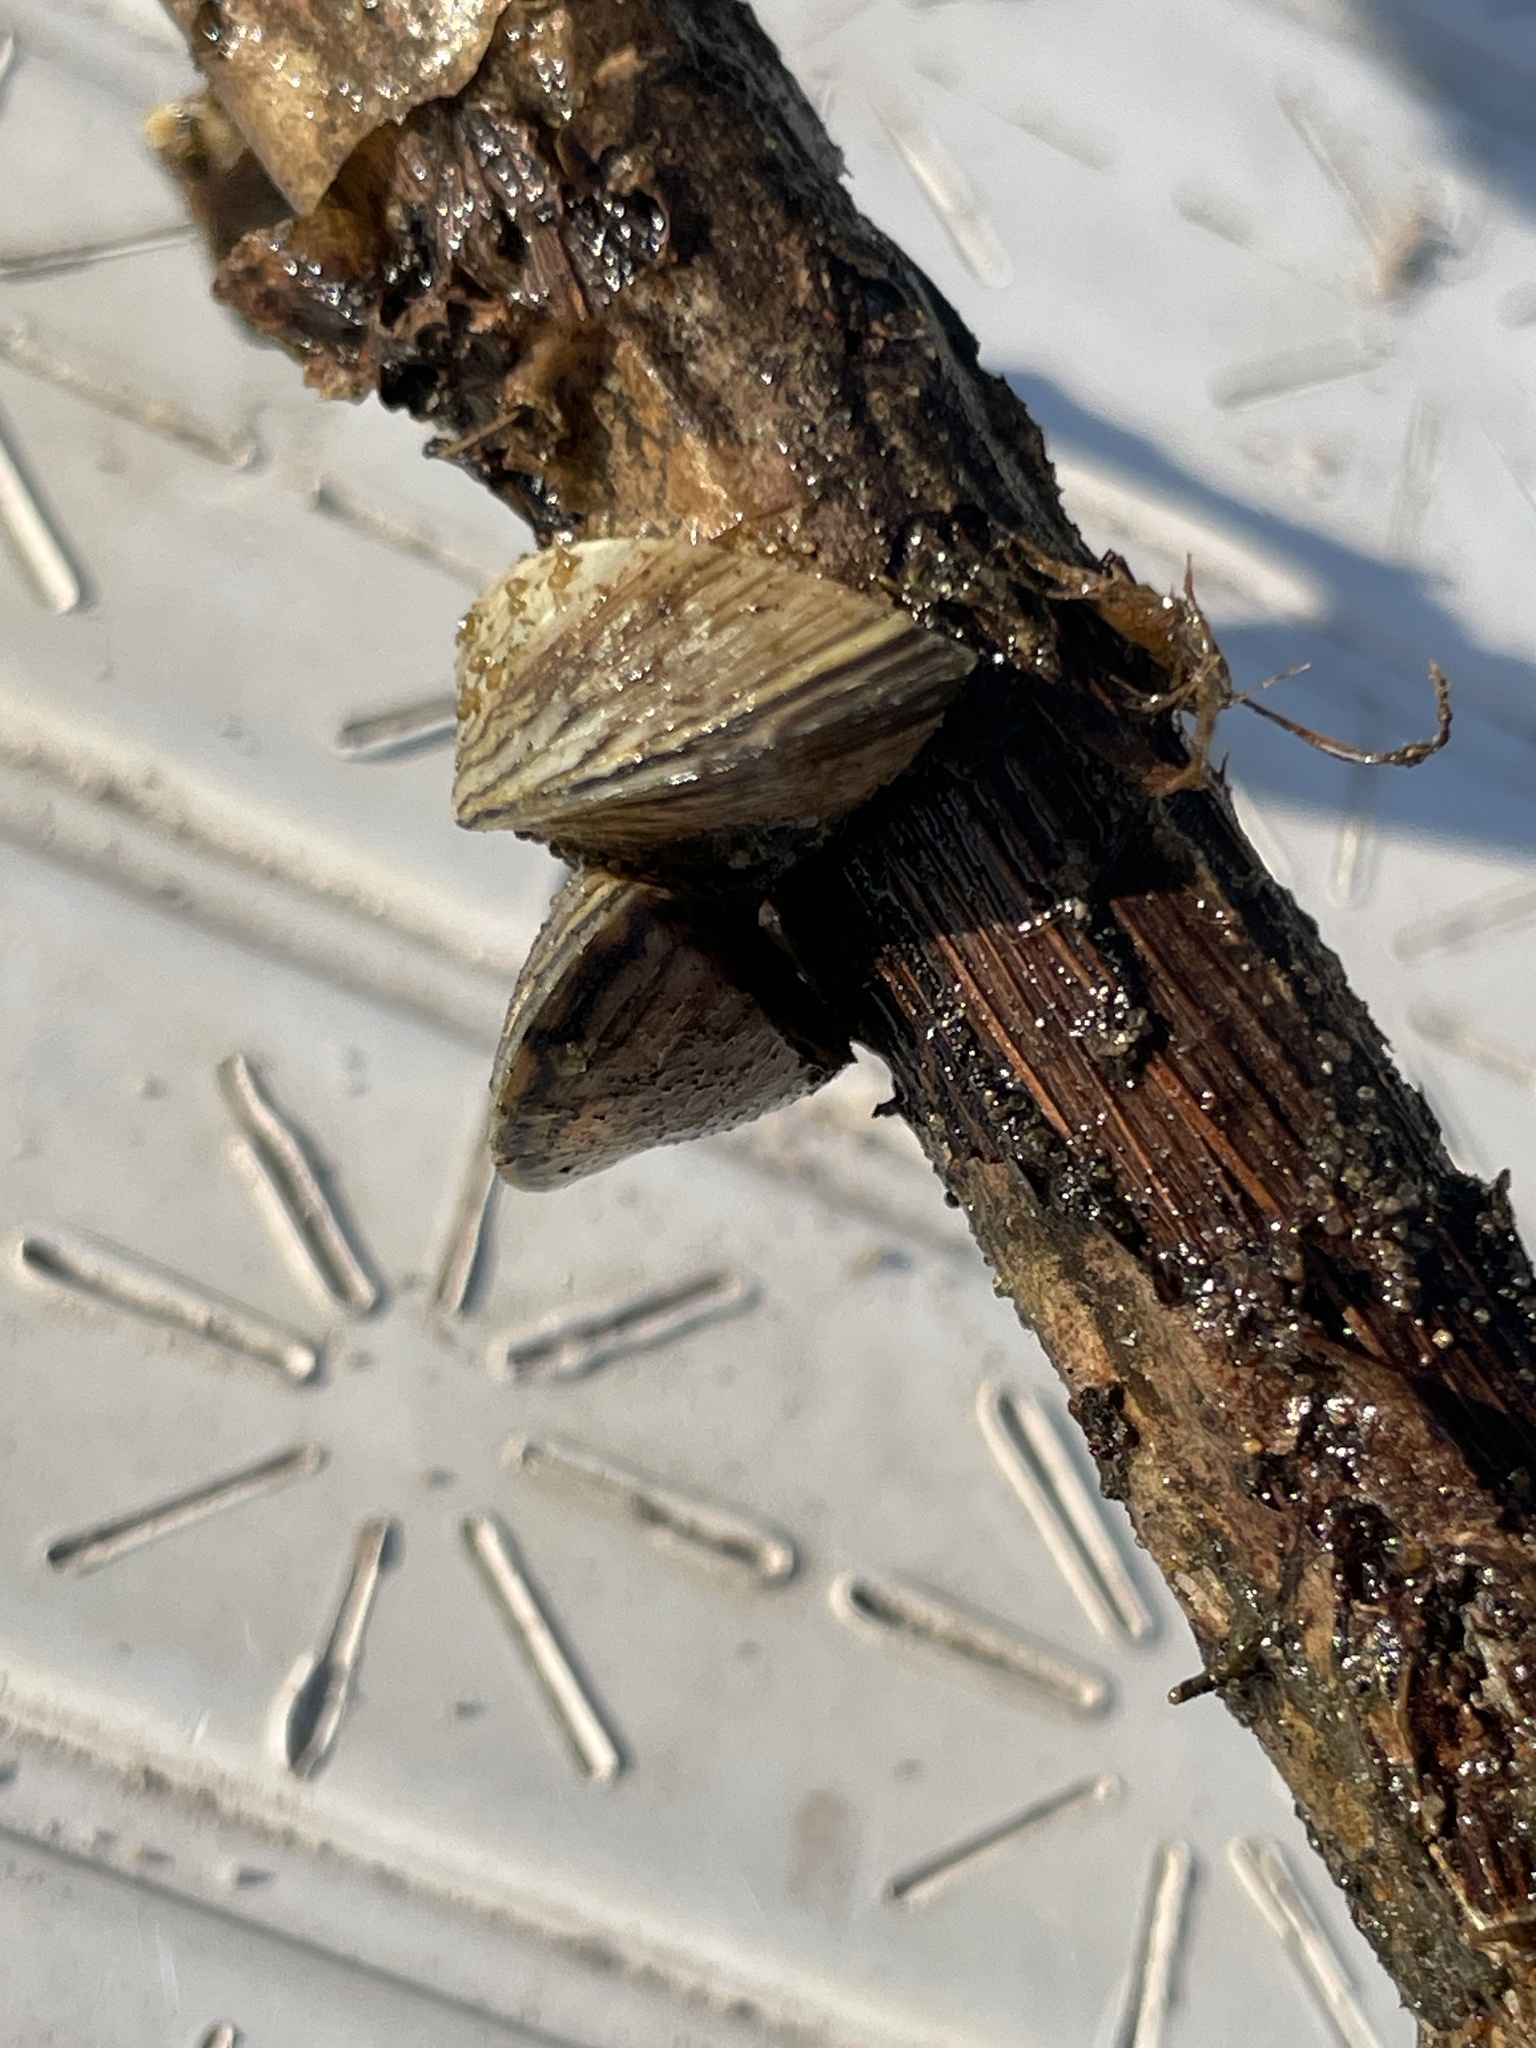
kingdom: Animalia
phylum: Mollusca
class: Bivalvia
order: Myida
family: Dreissenidae
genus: Dreissena
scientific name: Dreissena polymorpha
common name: Zebra mussel
